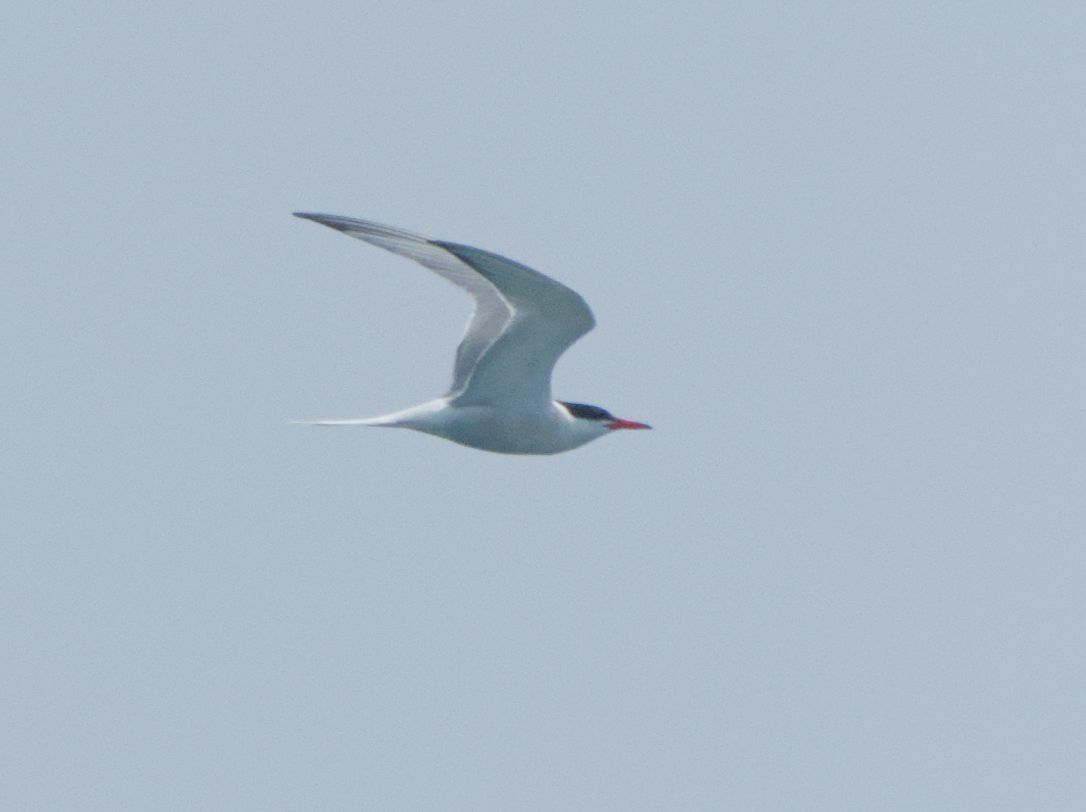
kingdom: Animalia
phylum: Chordata
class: Aves
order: Charadriiformes
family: Laridae
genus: Sterna
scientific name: Sterna hirundo
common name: Common tern
